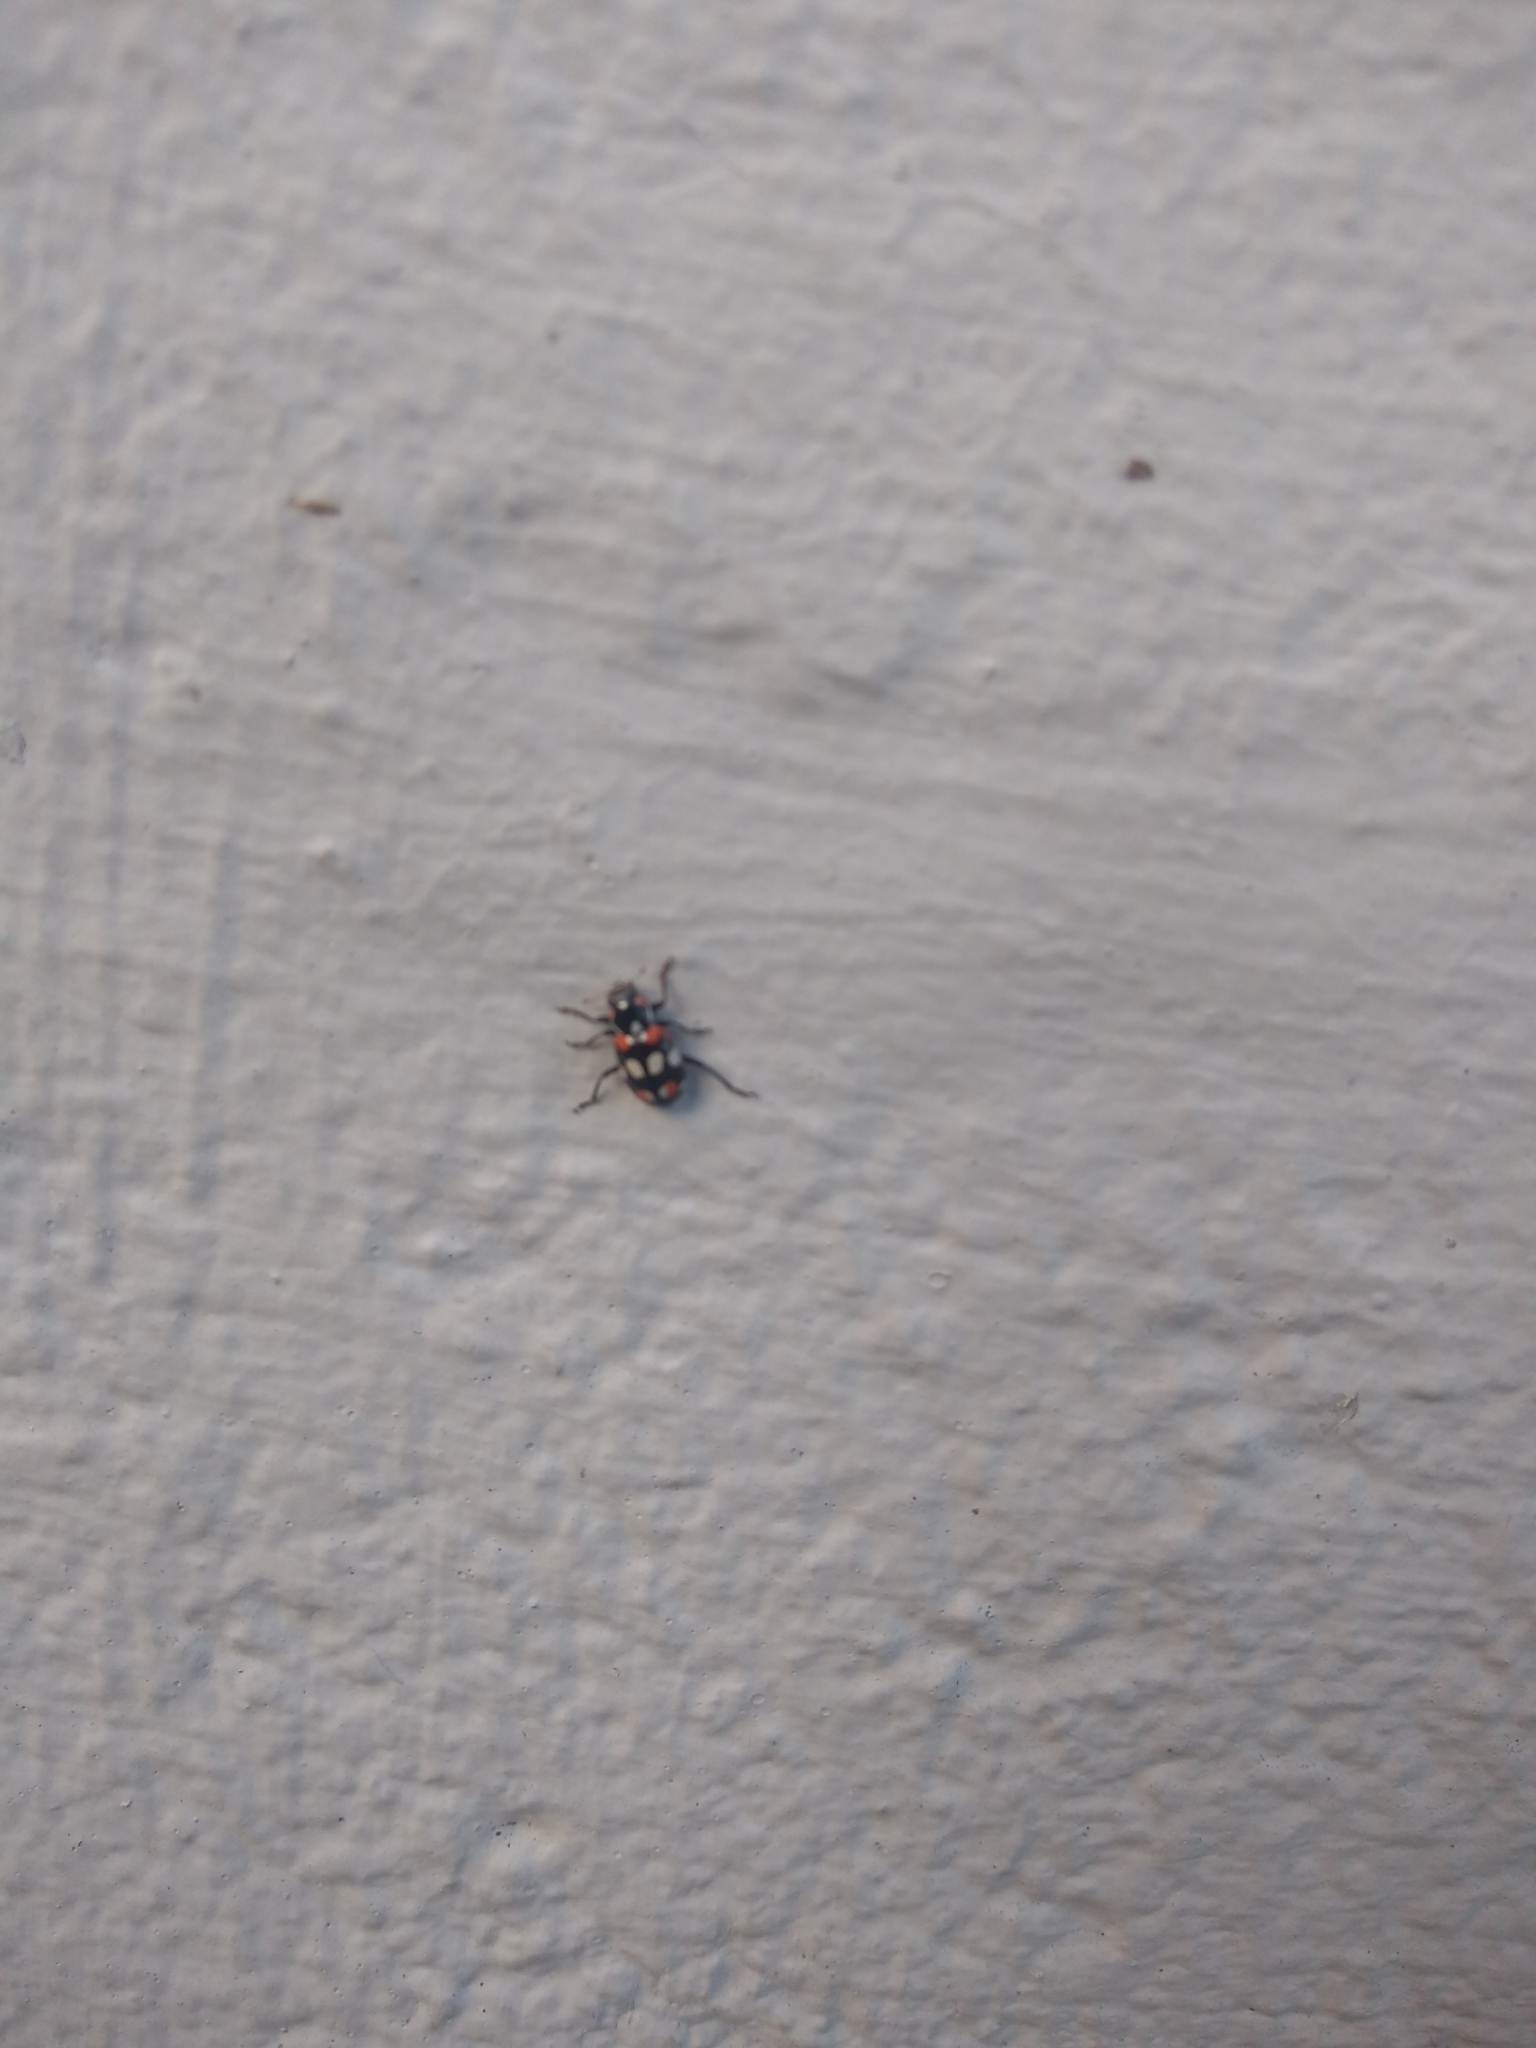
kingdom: Animalia
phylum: Arthropoda
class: Insecta
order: Coleoptera
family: Coccinellidae
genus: Eriopis
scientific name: Eriopis connexa
